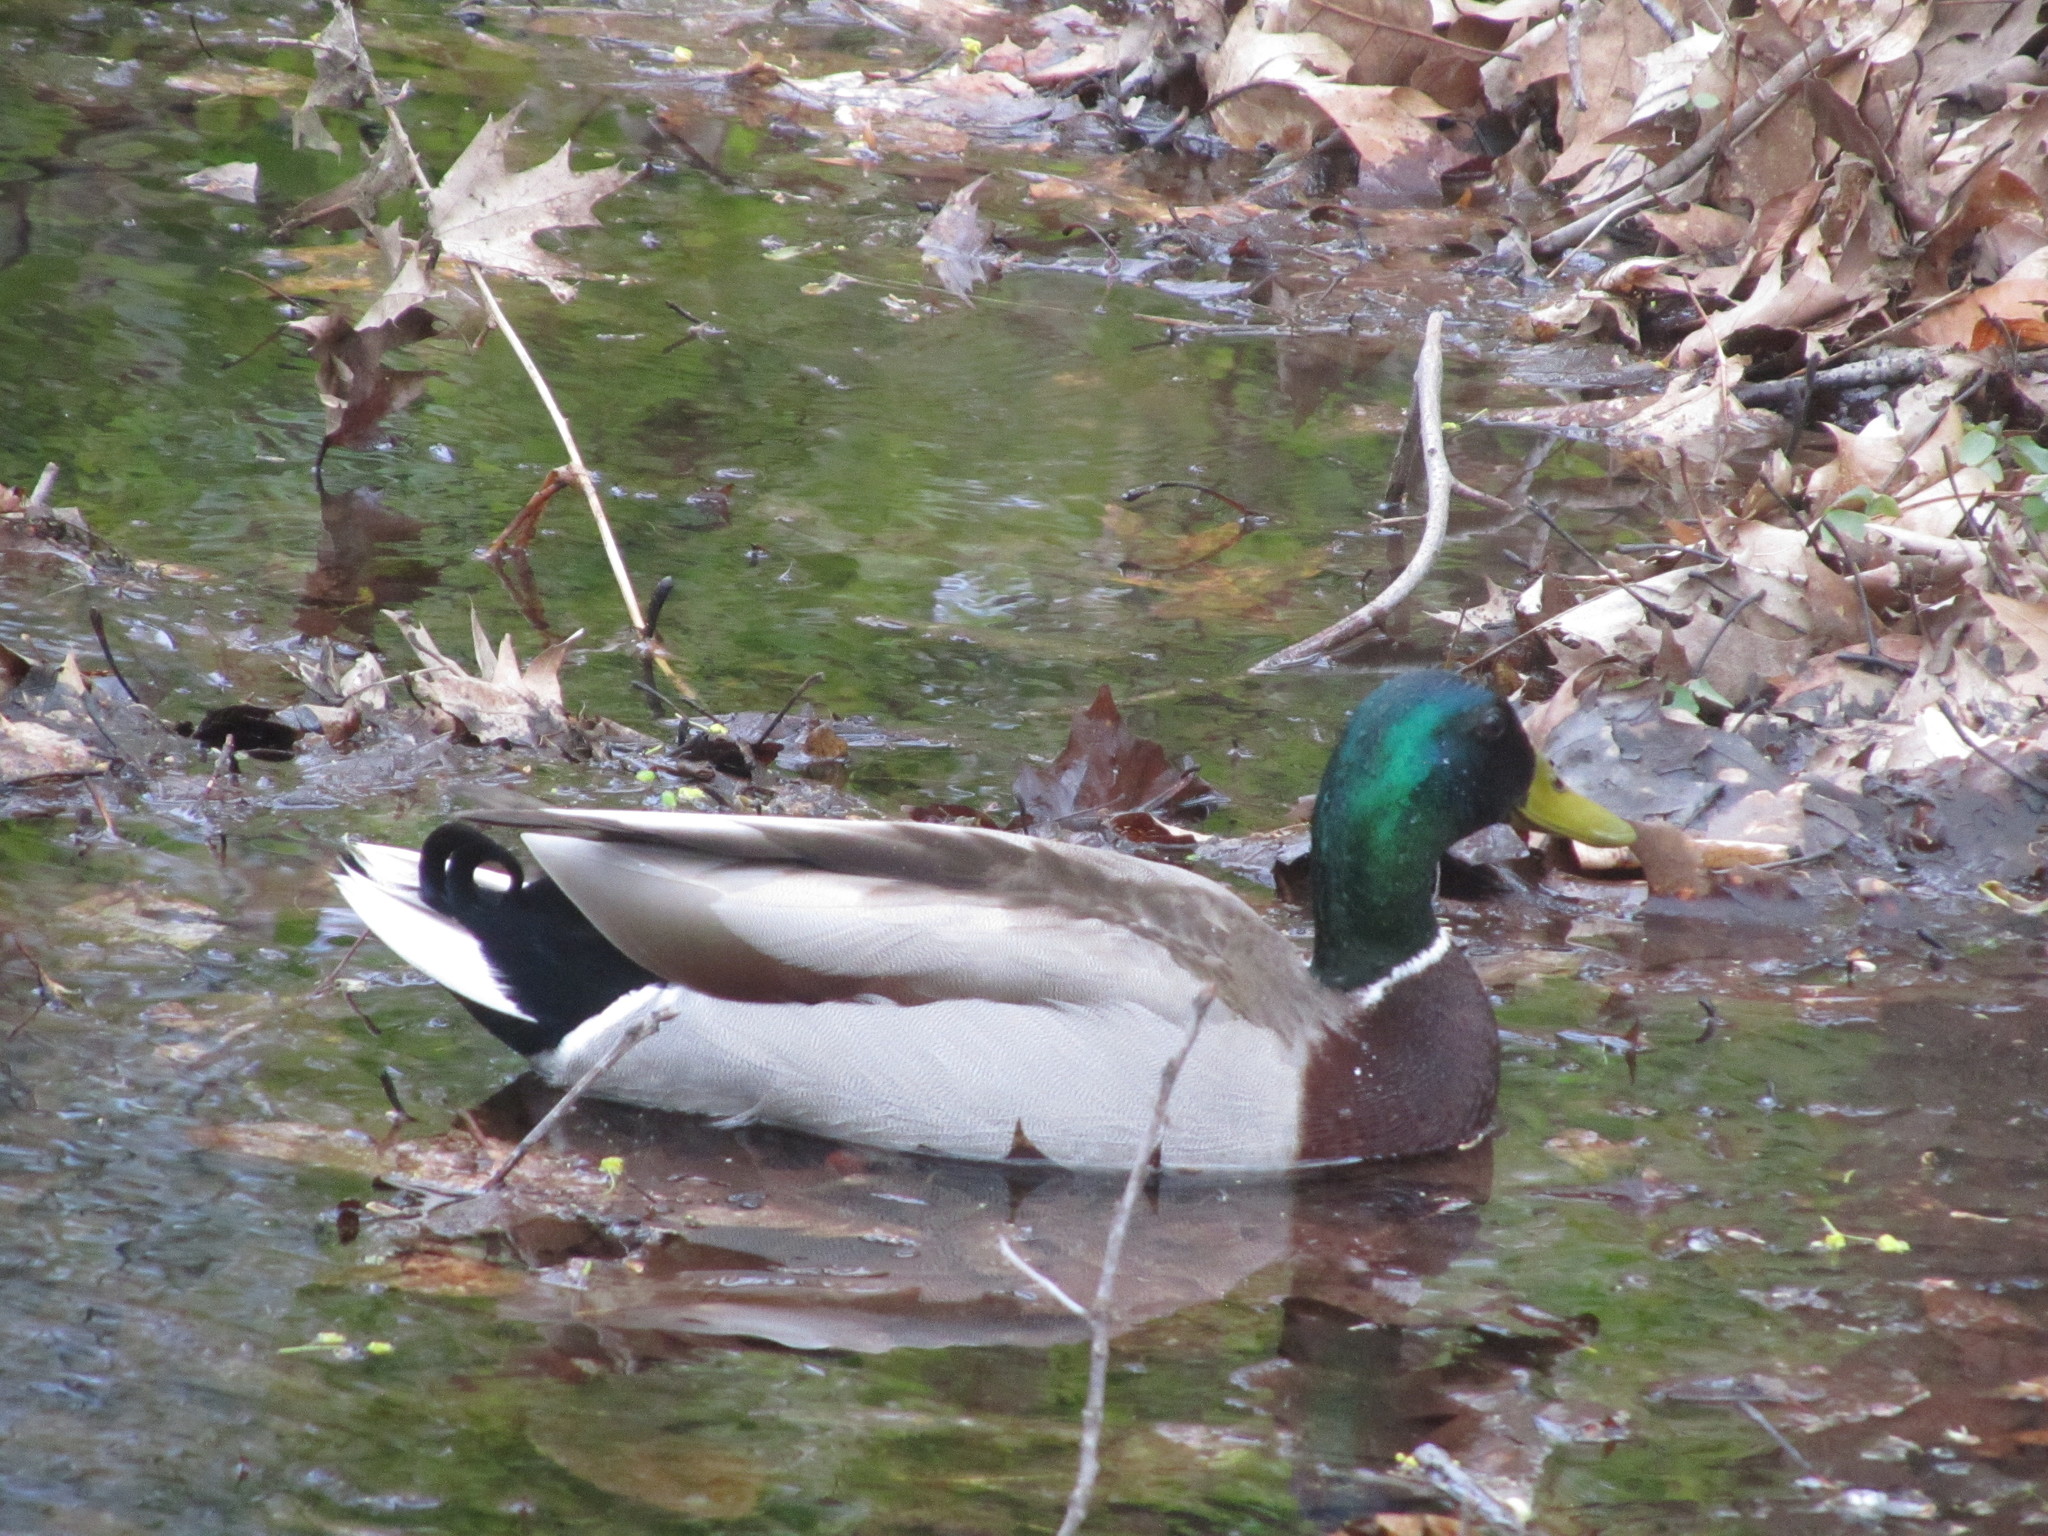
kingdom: Animalia
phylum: Chordata
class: Aves
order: Anseriformes
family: Anatidae
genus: Anas
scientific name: Anas platyrhynchos
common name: Mallard
